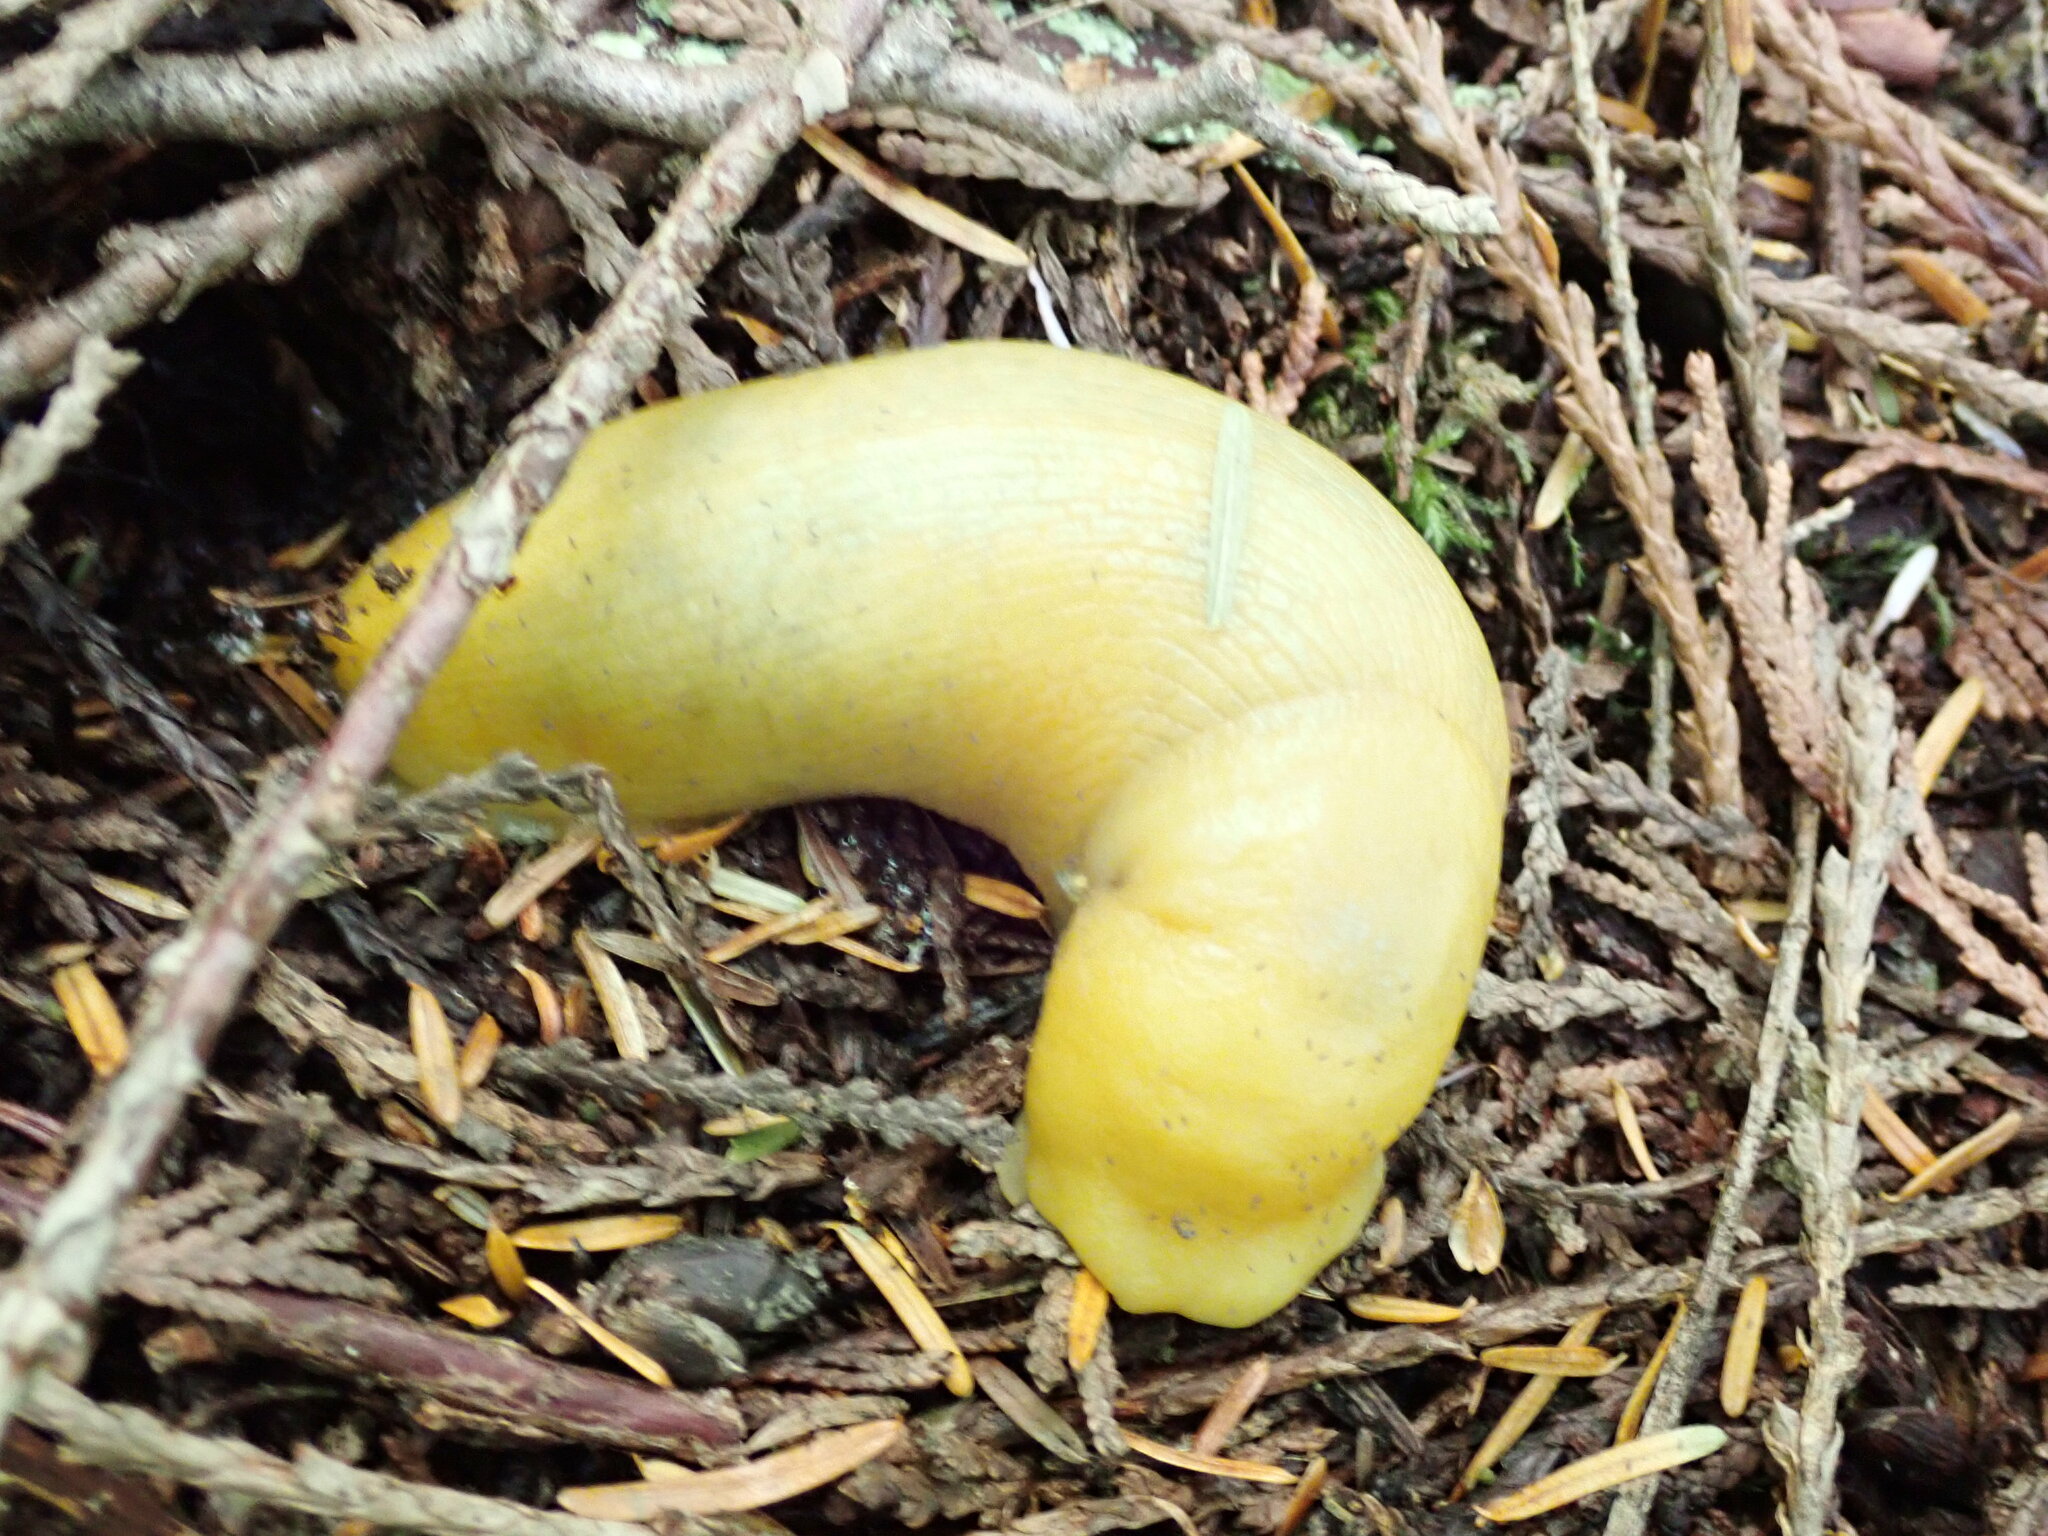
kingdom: Animalia
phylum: Mollusca
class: Gastropoda
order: Stylommatophora
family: Ariolimacidae
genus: Ariolimax
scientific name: Ariolimax columbianus
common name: Pacific banana slug
